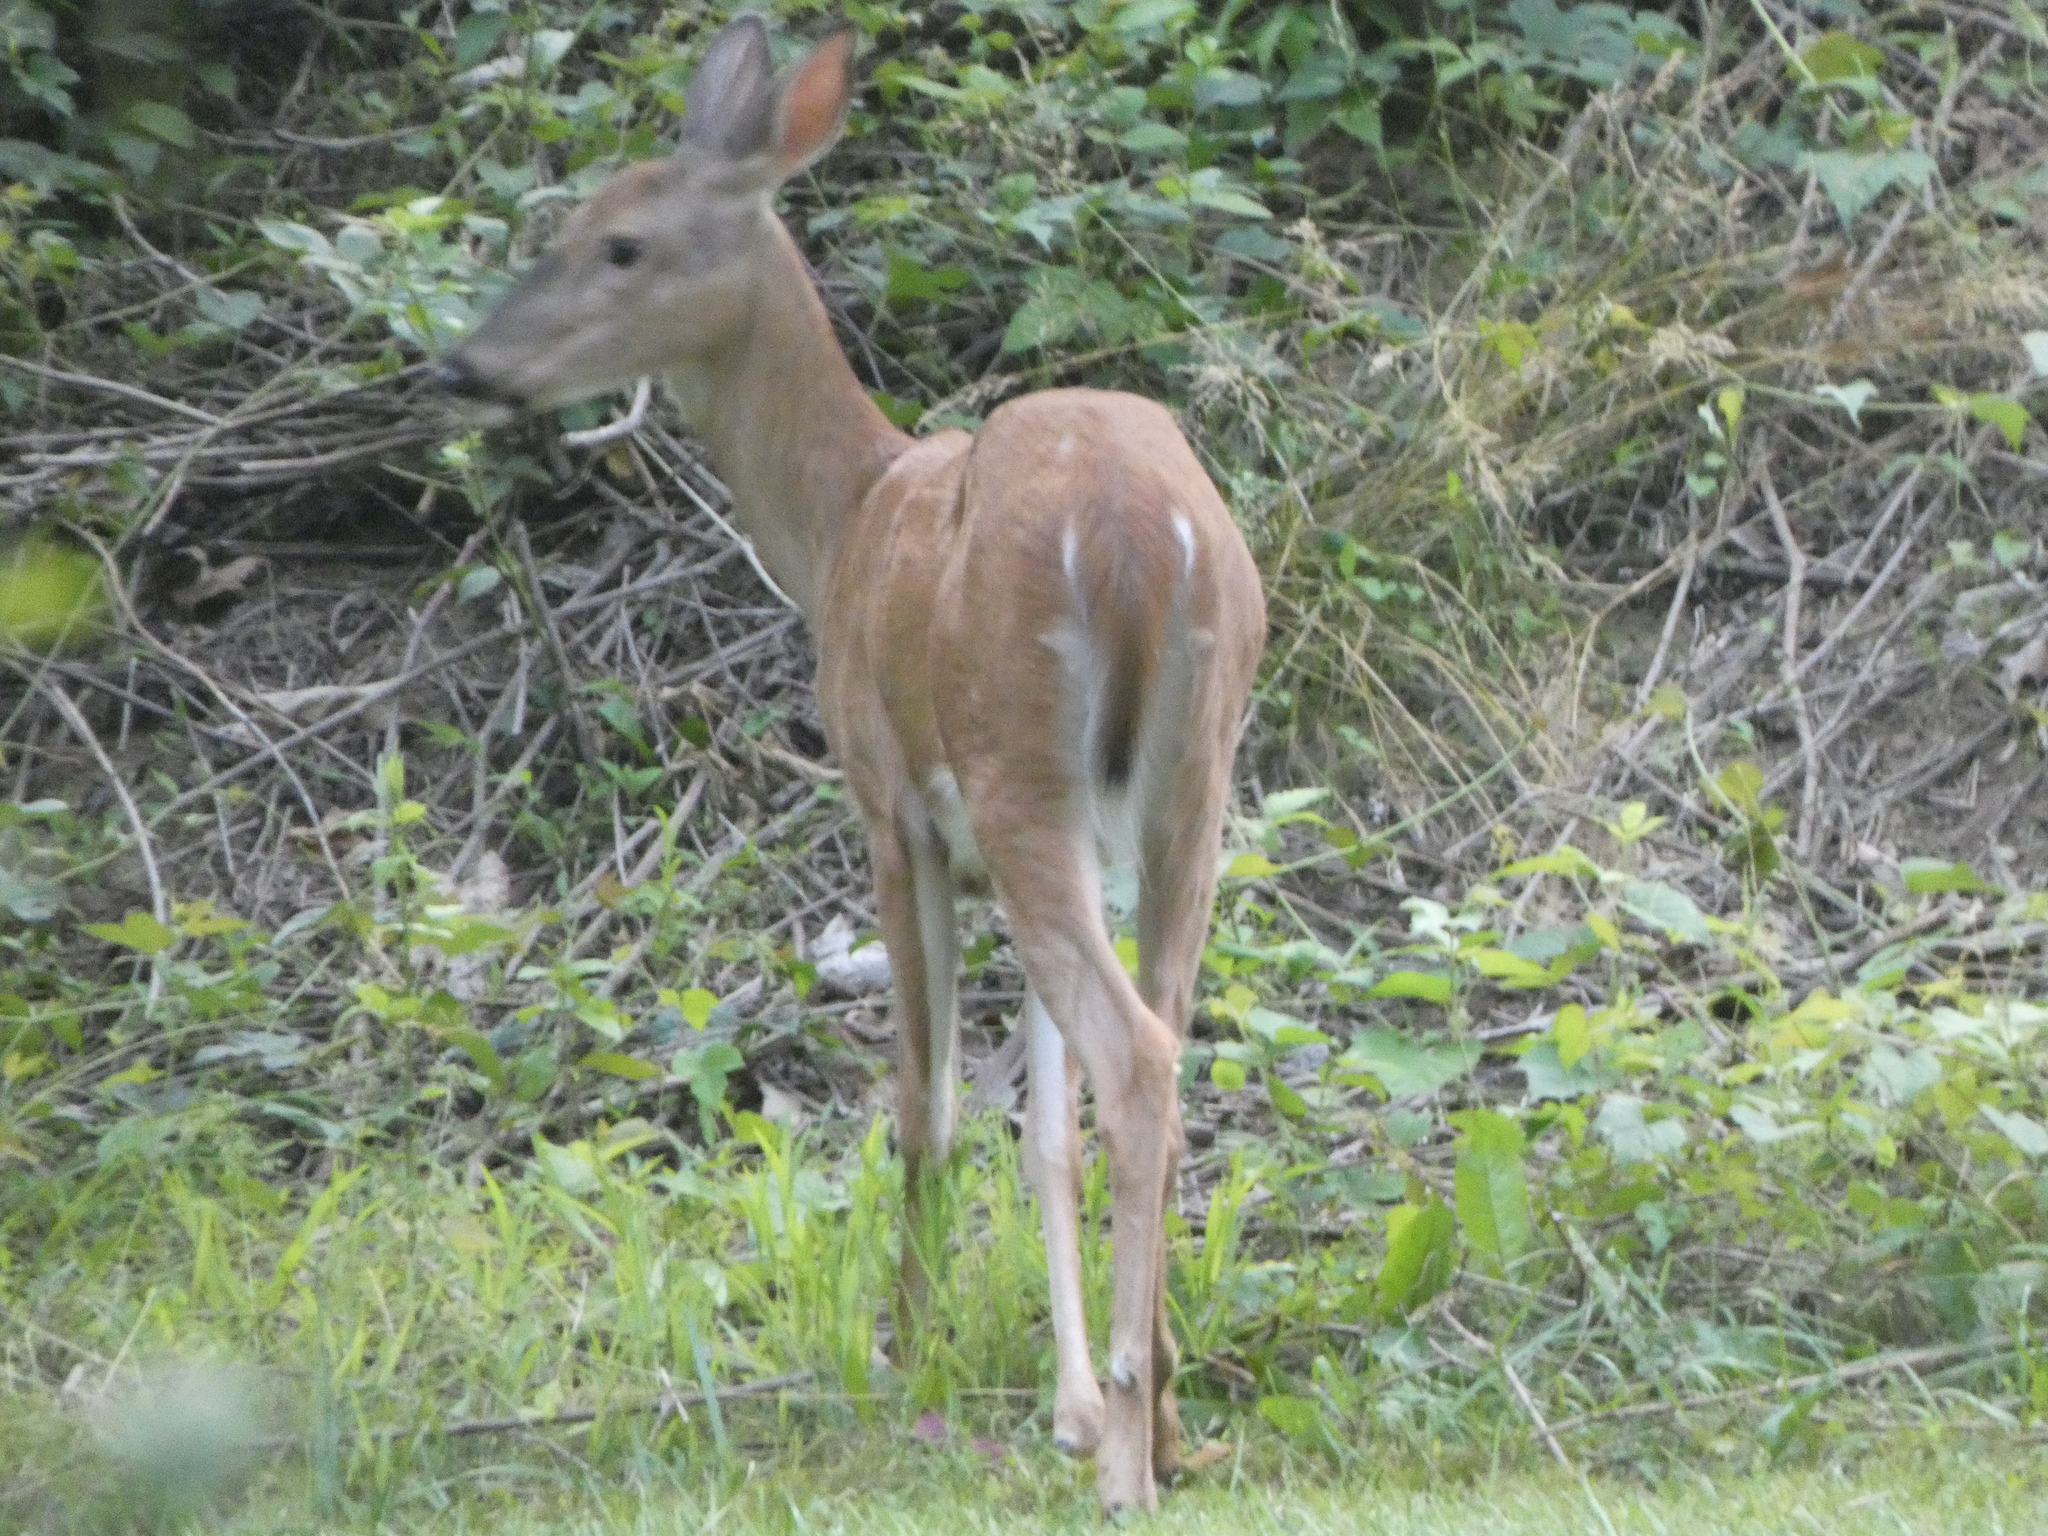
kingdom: Animalia
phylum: Chordata
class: Mammalia
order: Artiodactyla
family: Cervidae
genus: Odocoileus
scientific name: Odocoileus virginianus
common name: White-tailed deer
